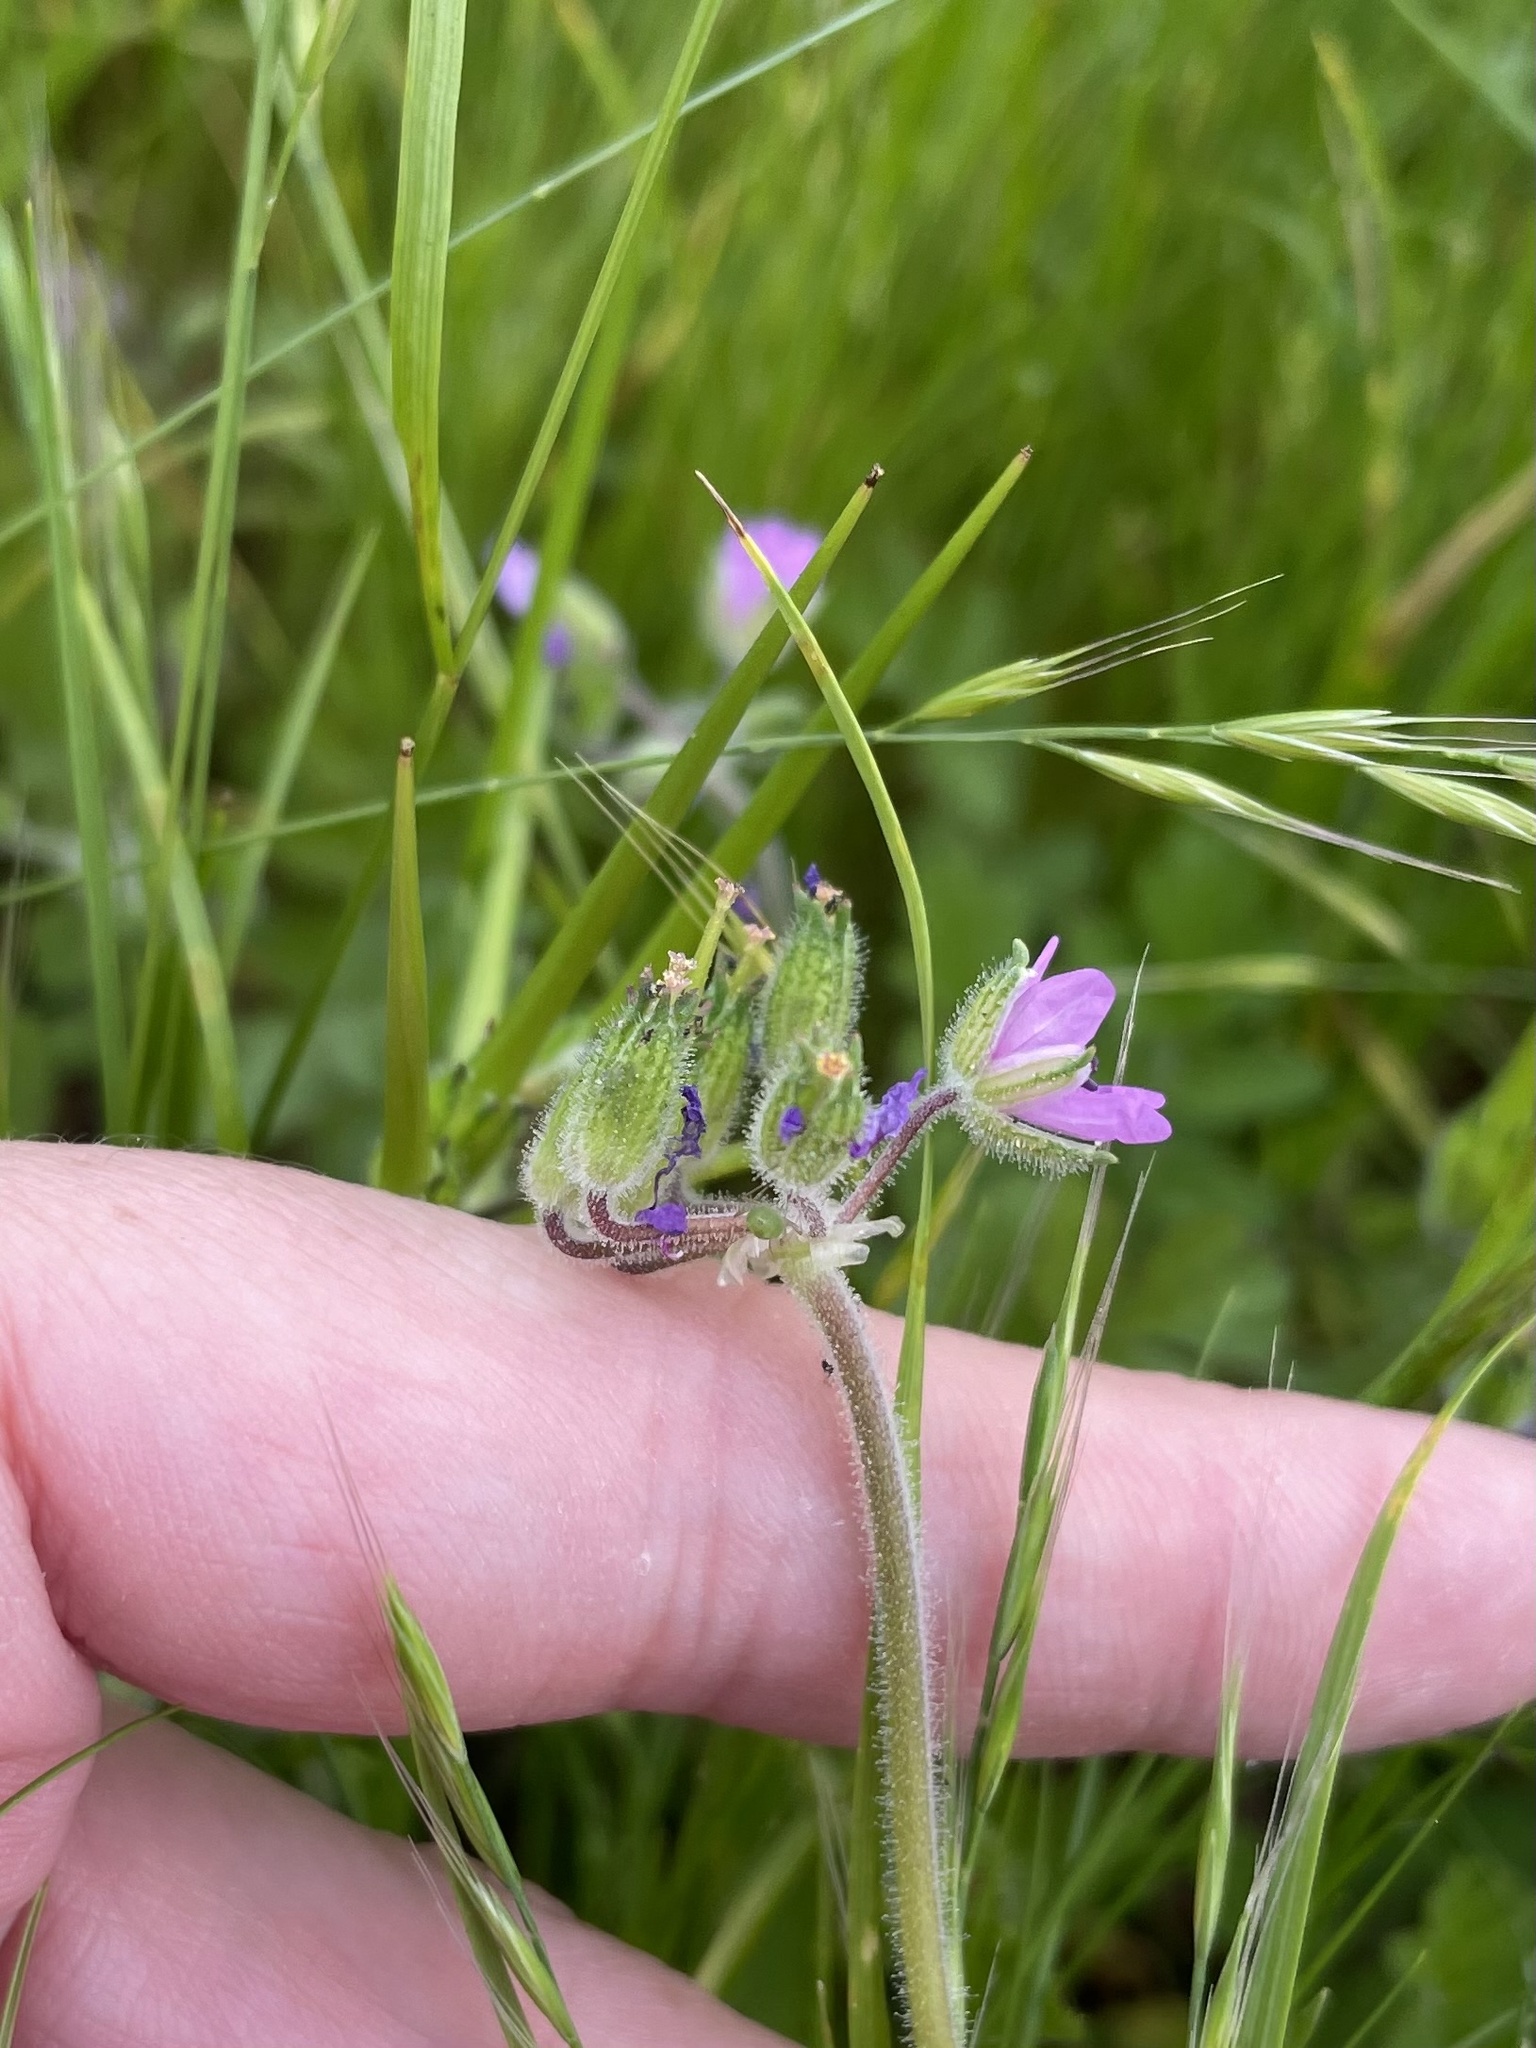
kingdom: Plantae
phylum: Tracheophyta
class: Magnoliopsida
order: Geraniales
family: Geraniaceae
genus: Erodium
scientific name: Erodium moschatum
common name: Musk stork's-bill
